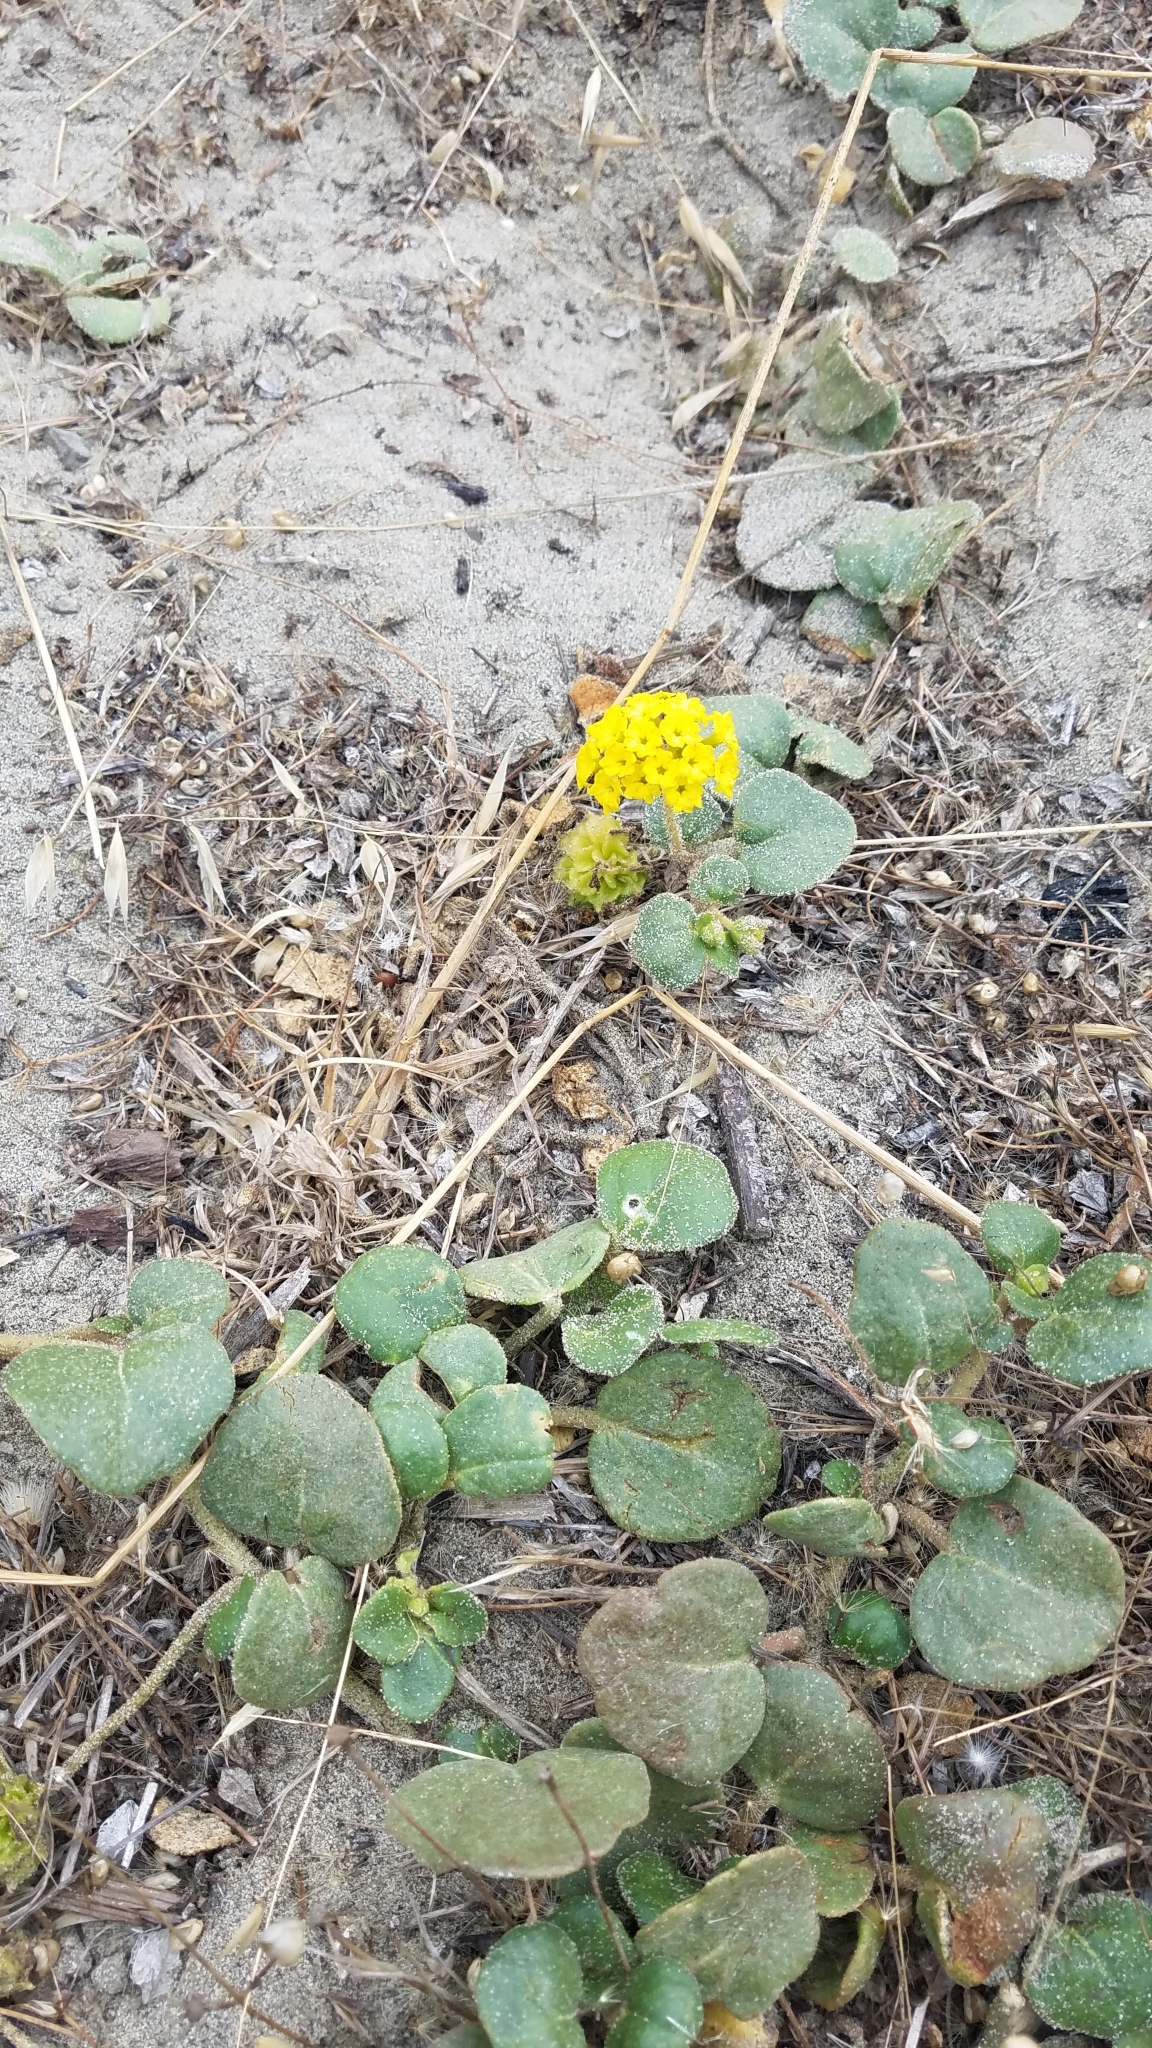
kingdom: Plantae
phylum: Tracheophyta
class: Magnoliopsida
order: Caryophyllales
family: Nyctaginaceae
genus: Abronia
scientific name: Abronia latifolia
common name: Yellow sand-verbena
